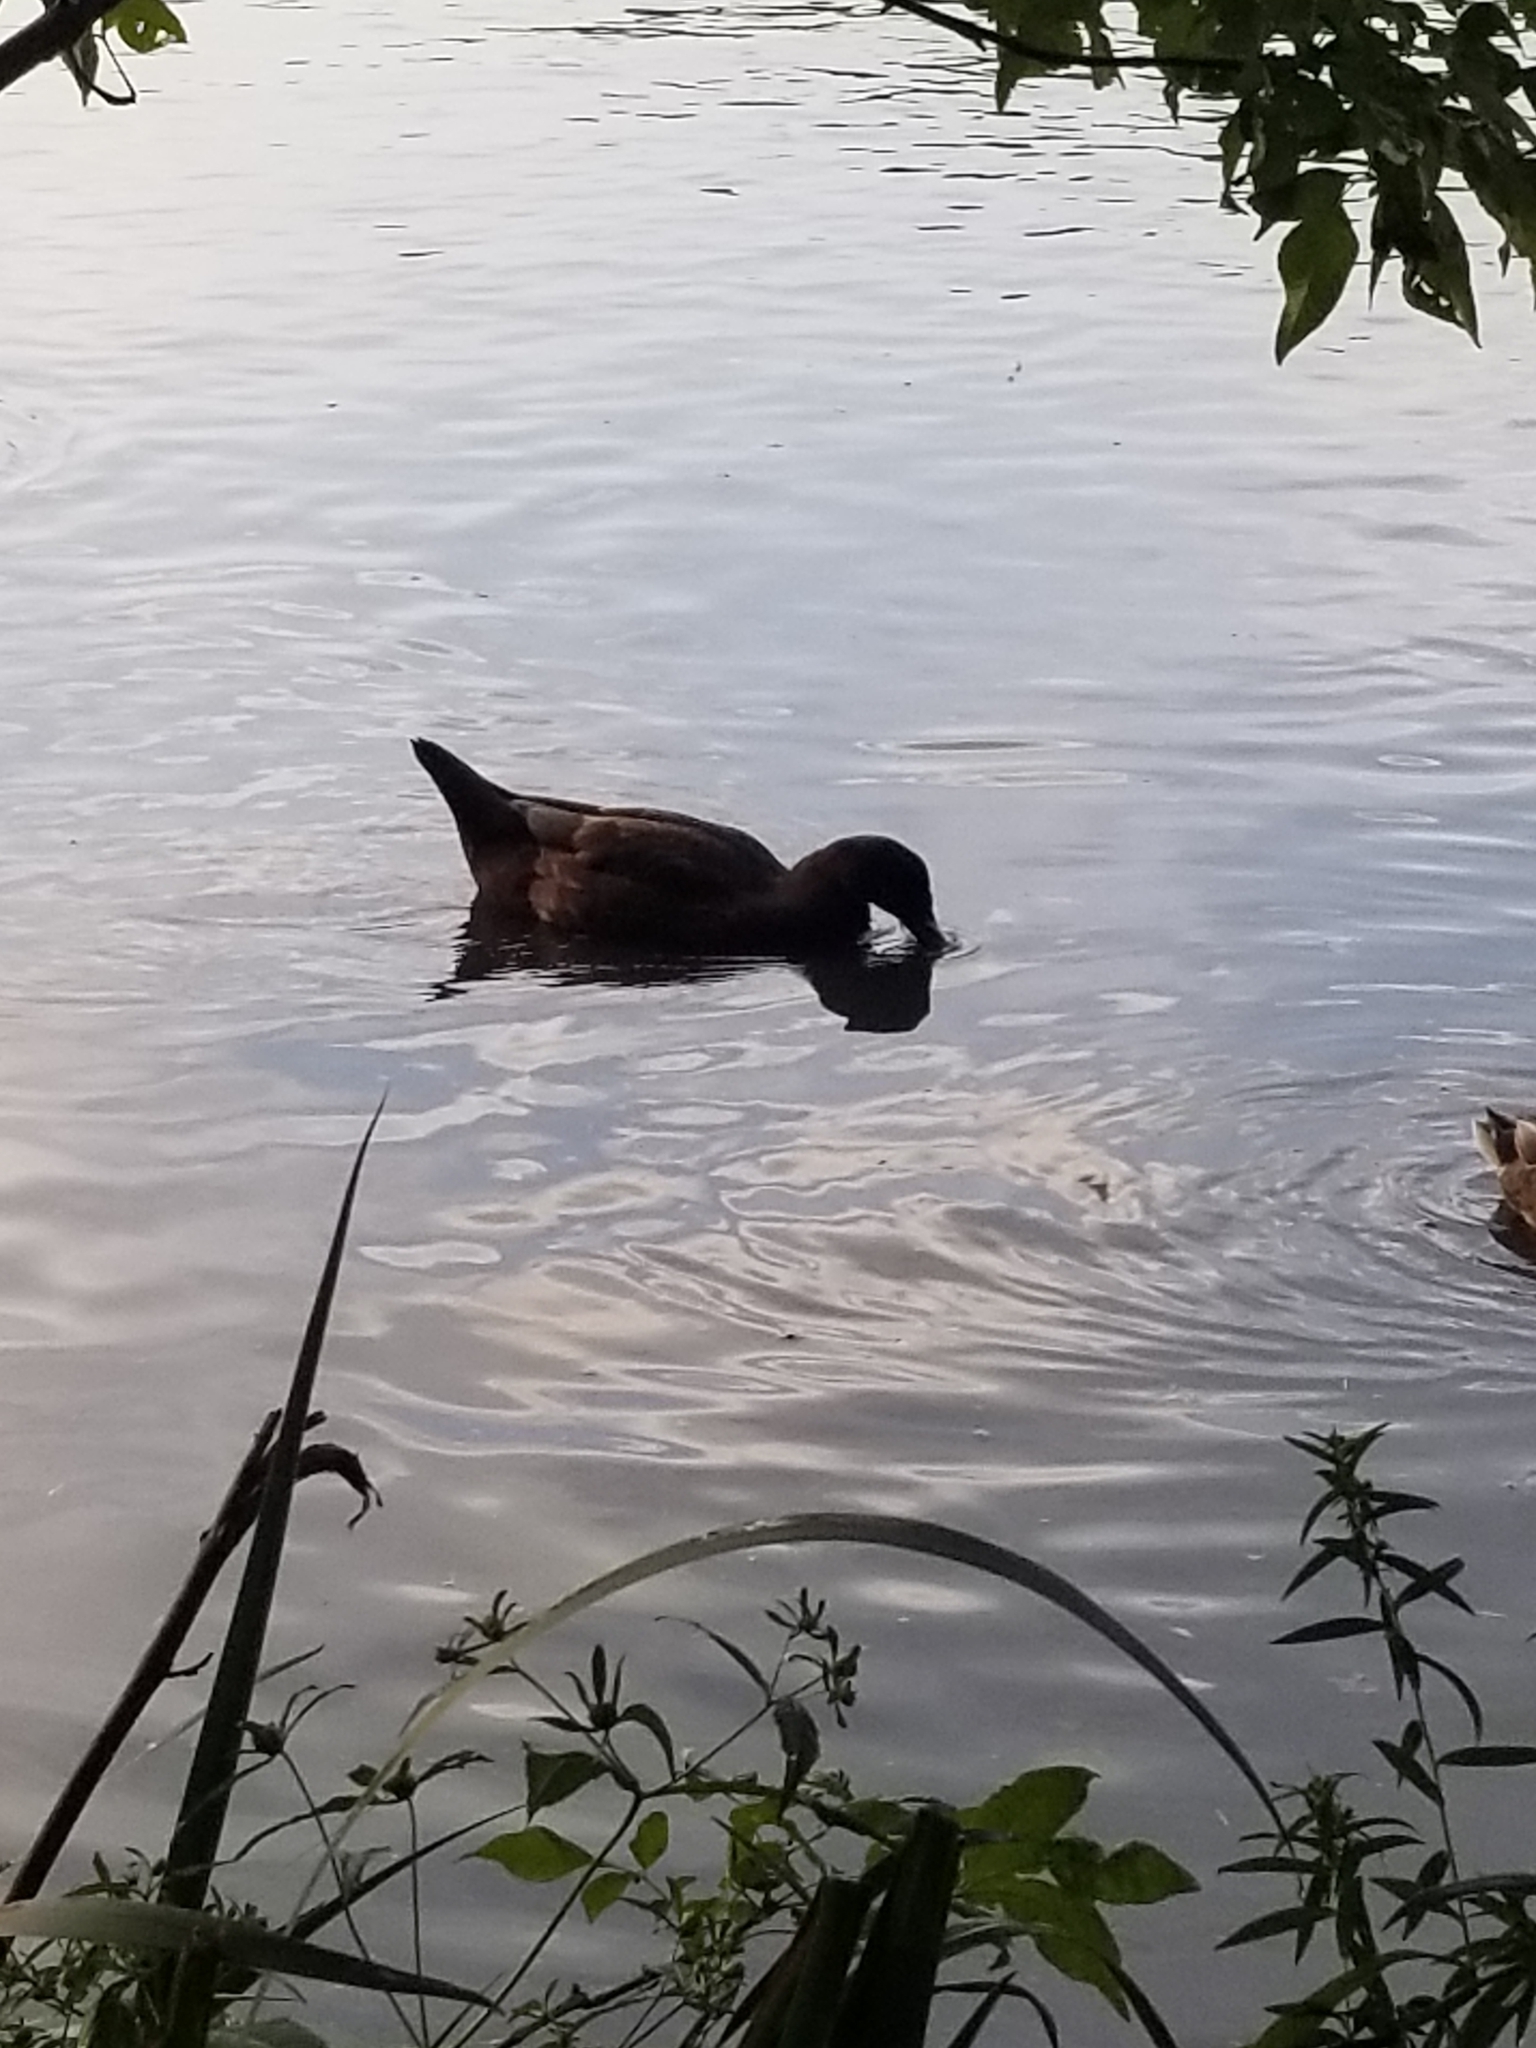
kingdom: Animalia
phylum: Chordata
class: Aves
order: Anseriformes
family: Anatidae
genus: Anas
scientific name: Anas platyrhynchos
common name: Mallard
